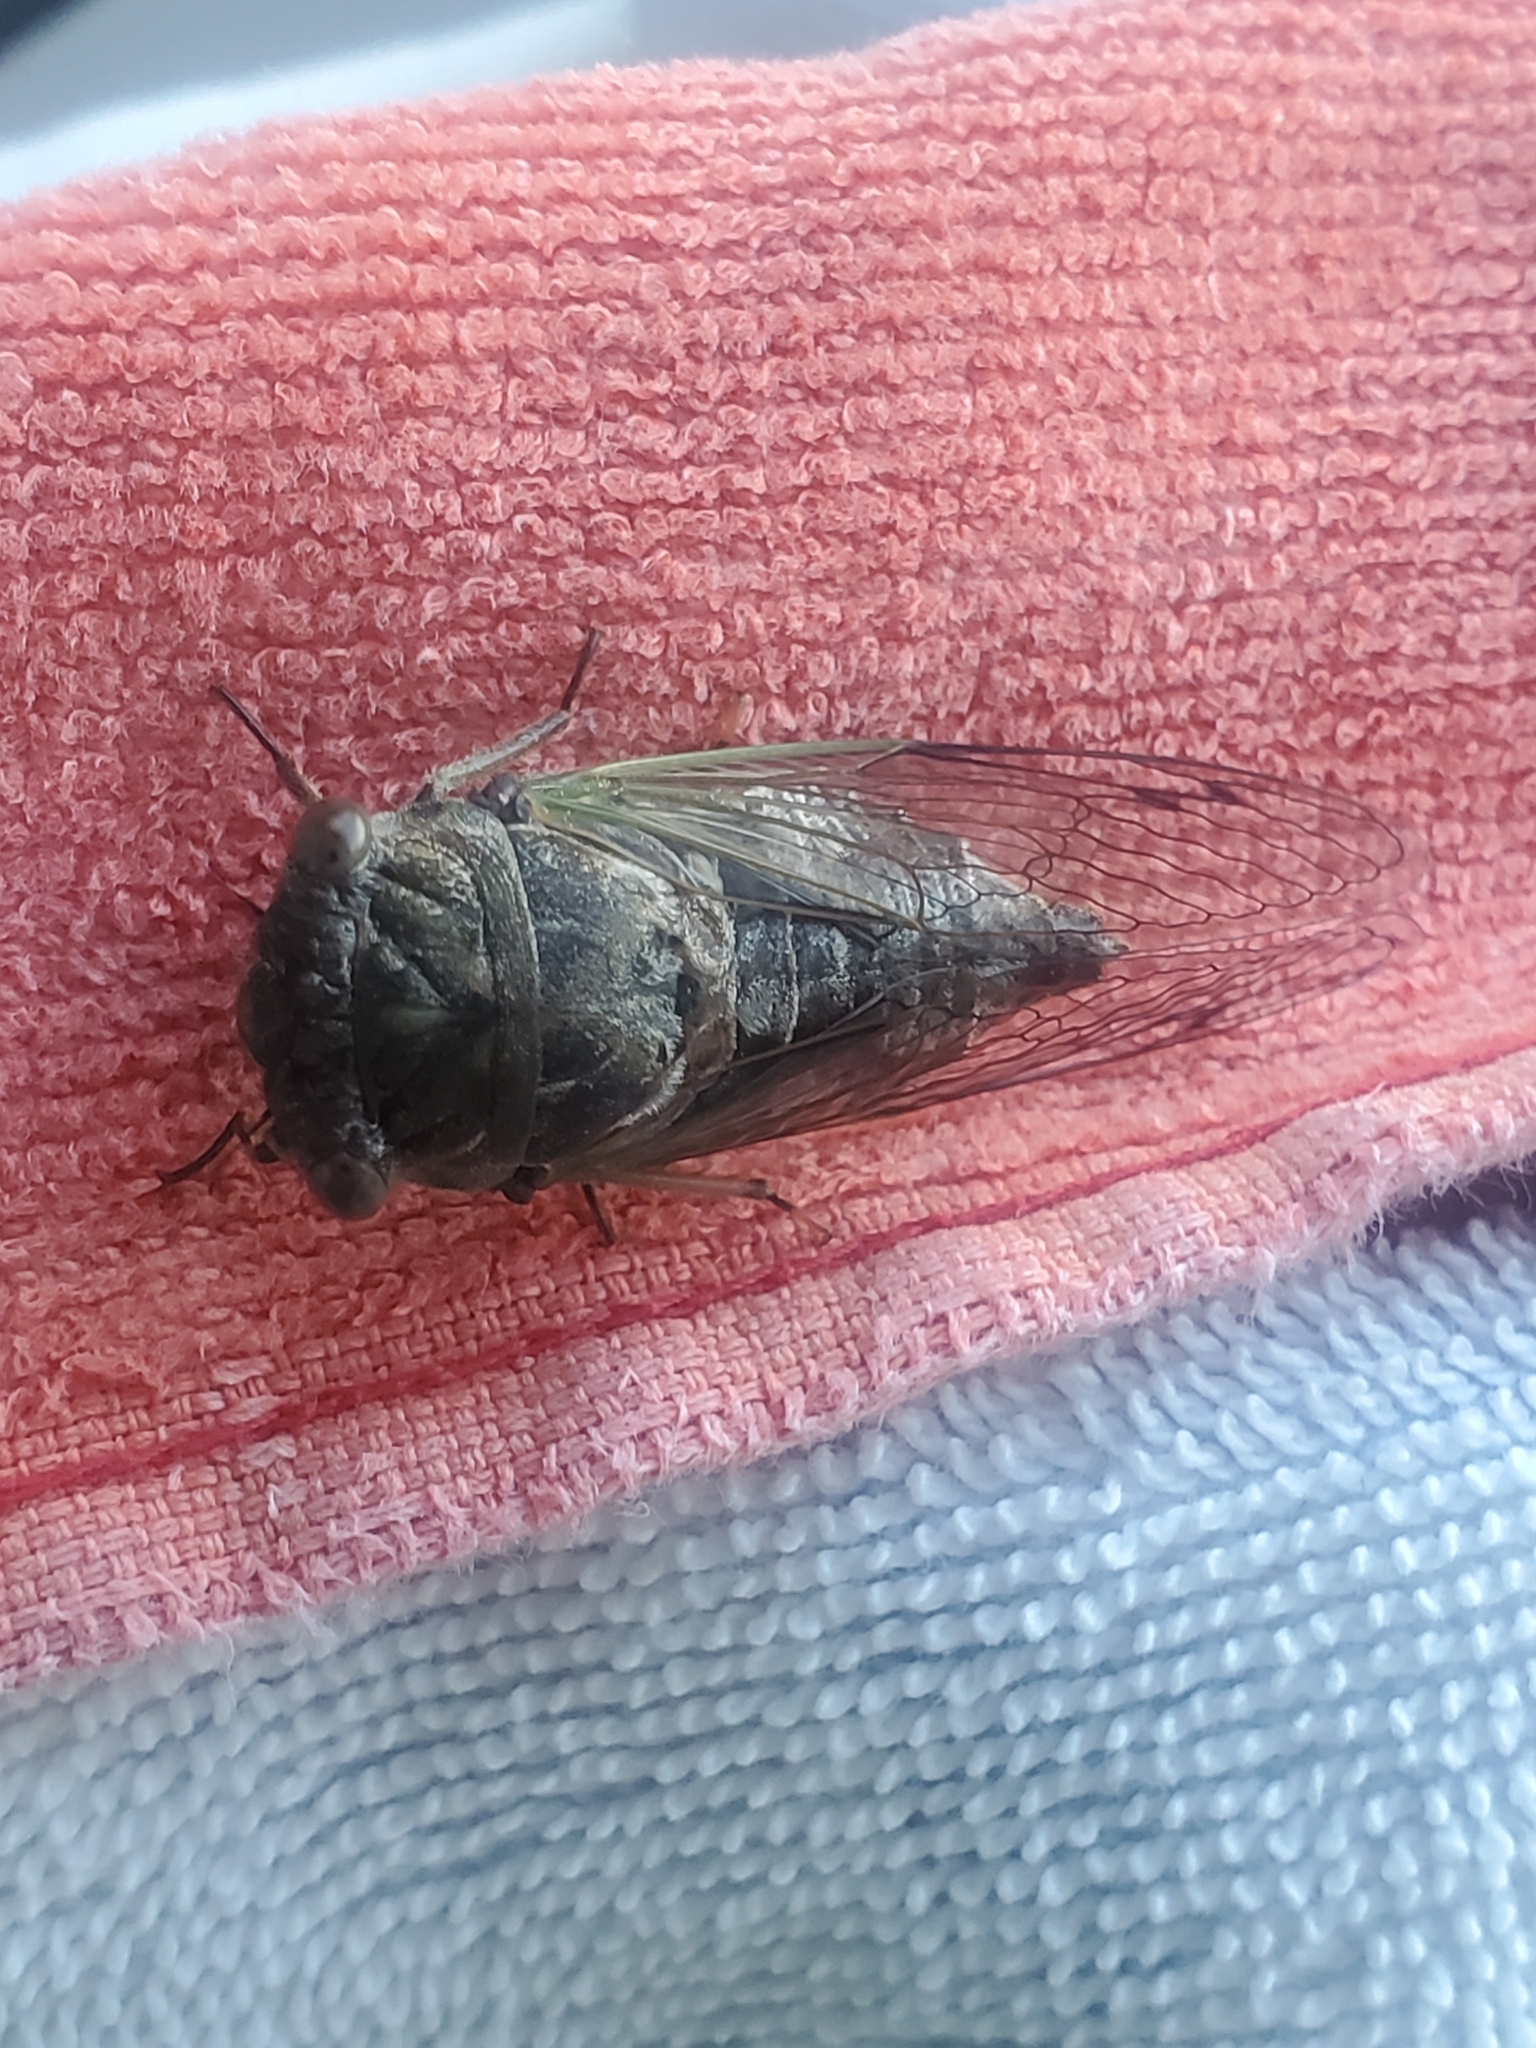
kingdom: Animalia
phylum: Arthropoda
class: Insecta
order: Hemiptera
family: Cicadidae
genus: Neotibicen
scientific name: Neotibicen canicularis
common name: God-day cicada
